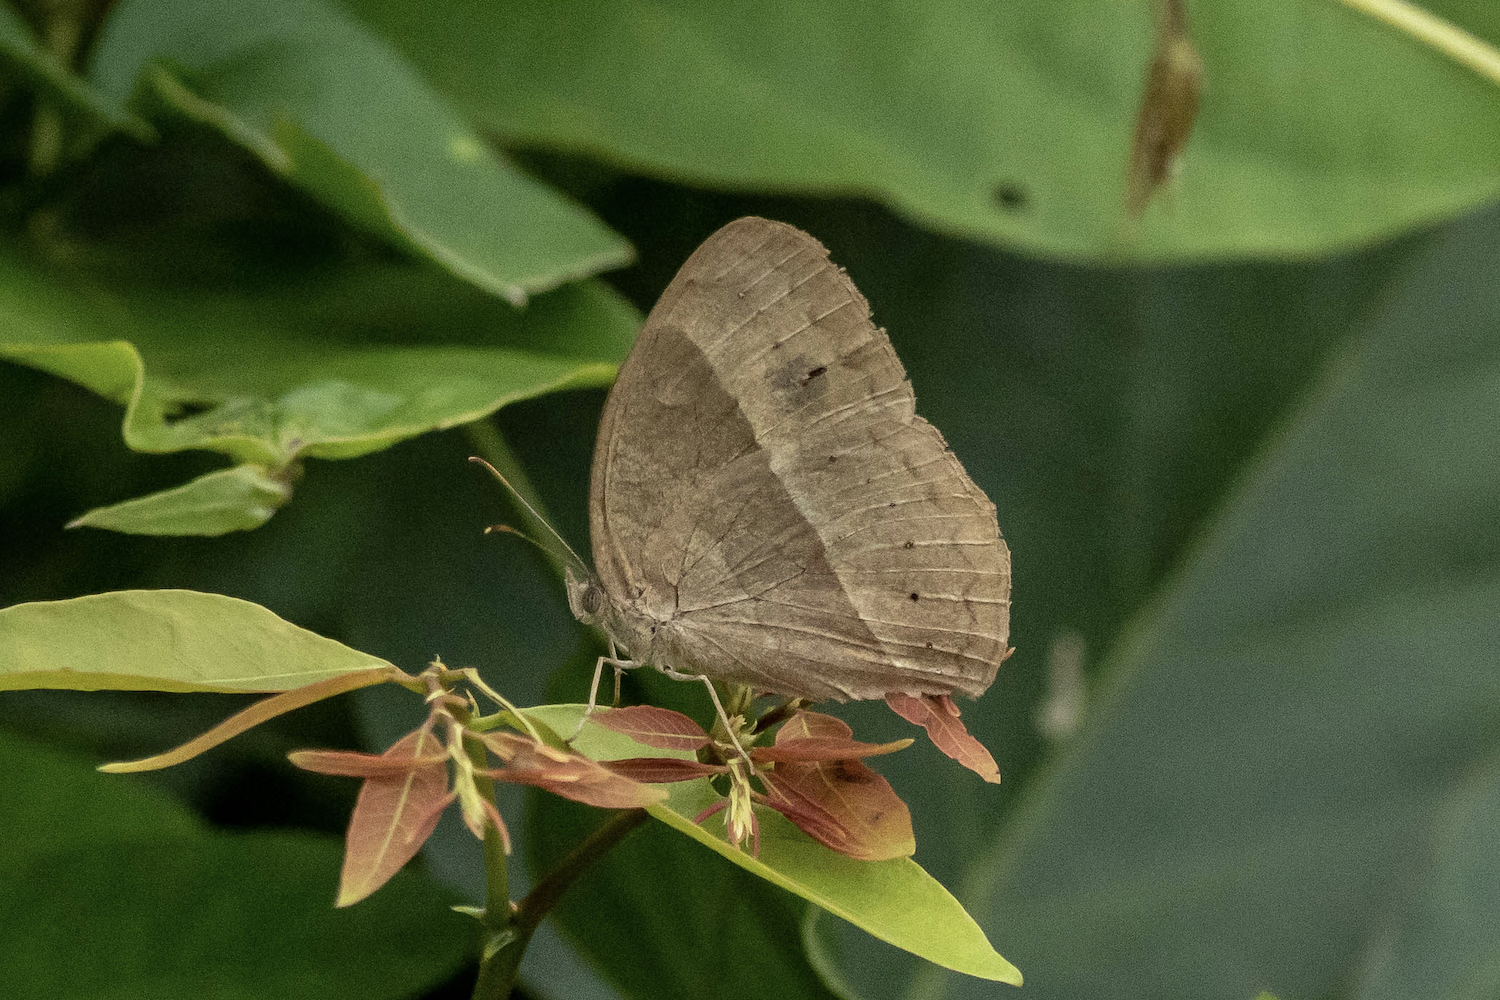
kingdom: Animalia
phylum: Arthropoda
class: Insecta
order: Lepidoptera
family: Nymphalidae
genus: Mycalesis
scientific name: Mycalesis mineus
